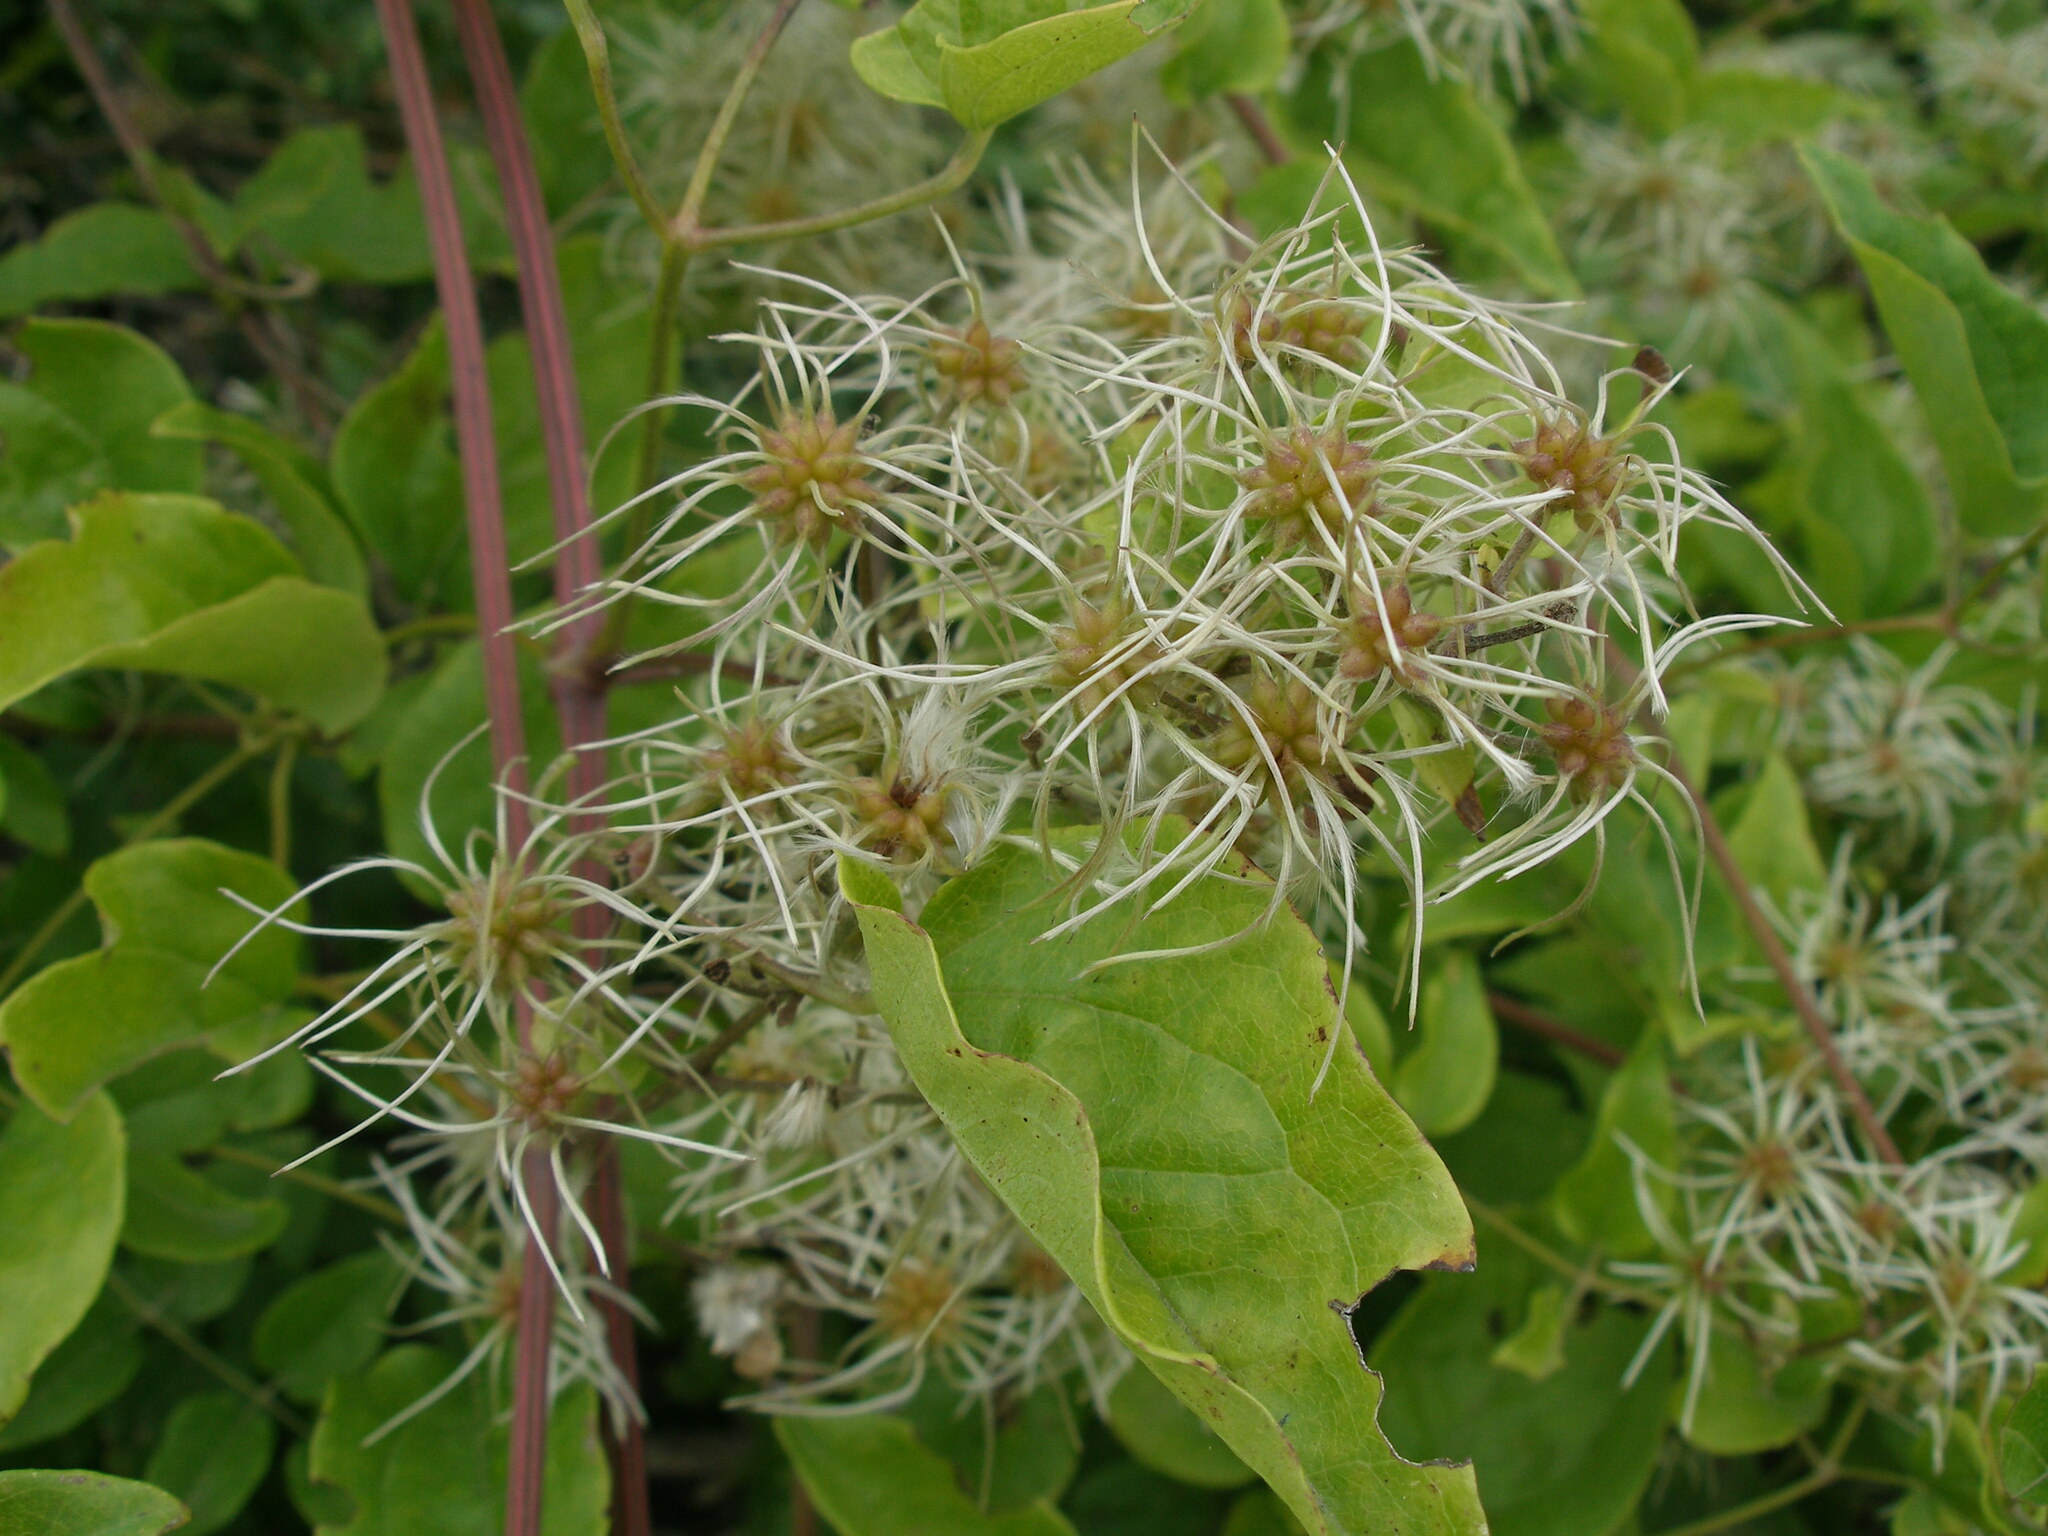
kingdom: Plantae
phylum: Tracheophyta
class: Magnoliopsida
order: Ranunculales
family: Ranunculaceae
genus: Clematis
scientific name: Clematis vitalba
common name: Evergreen clematis
